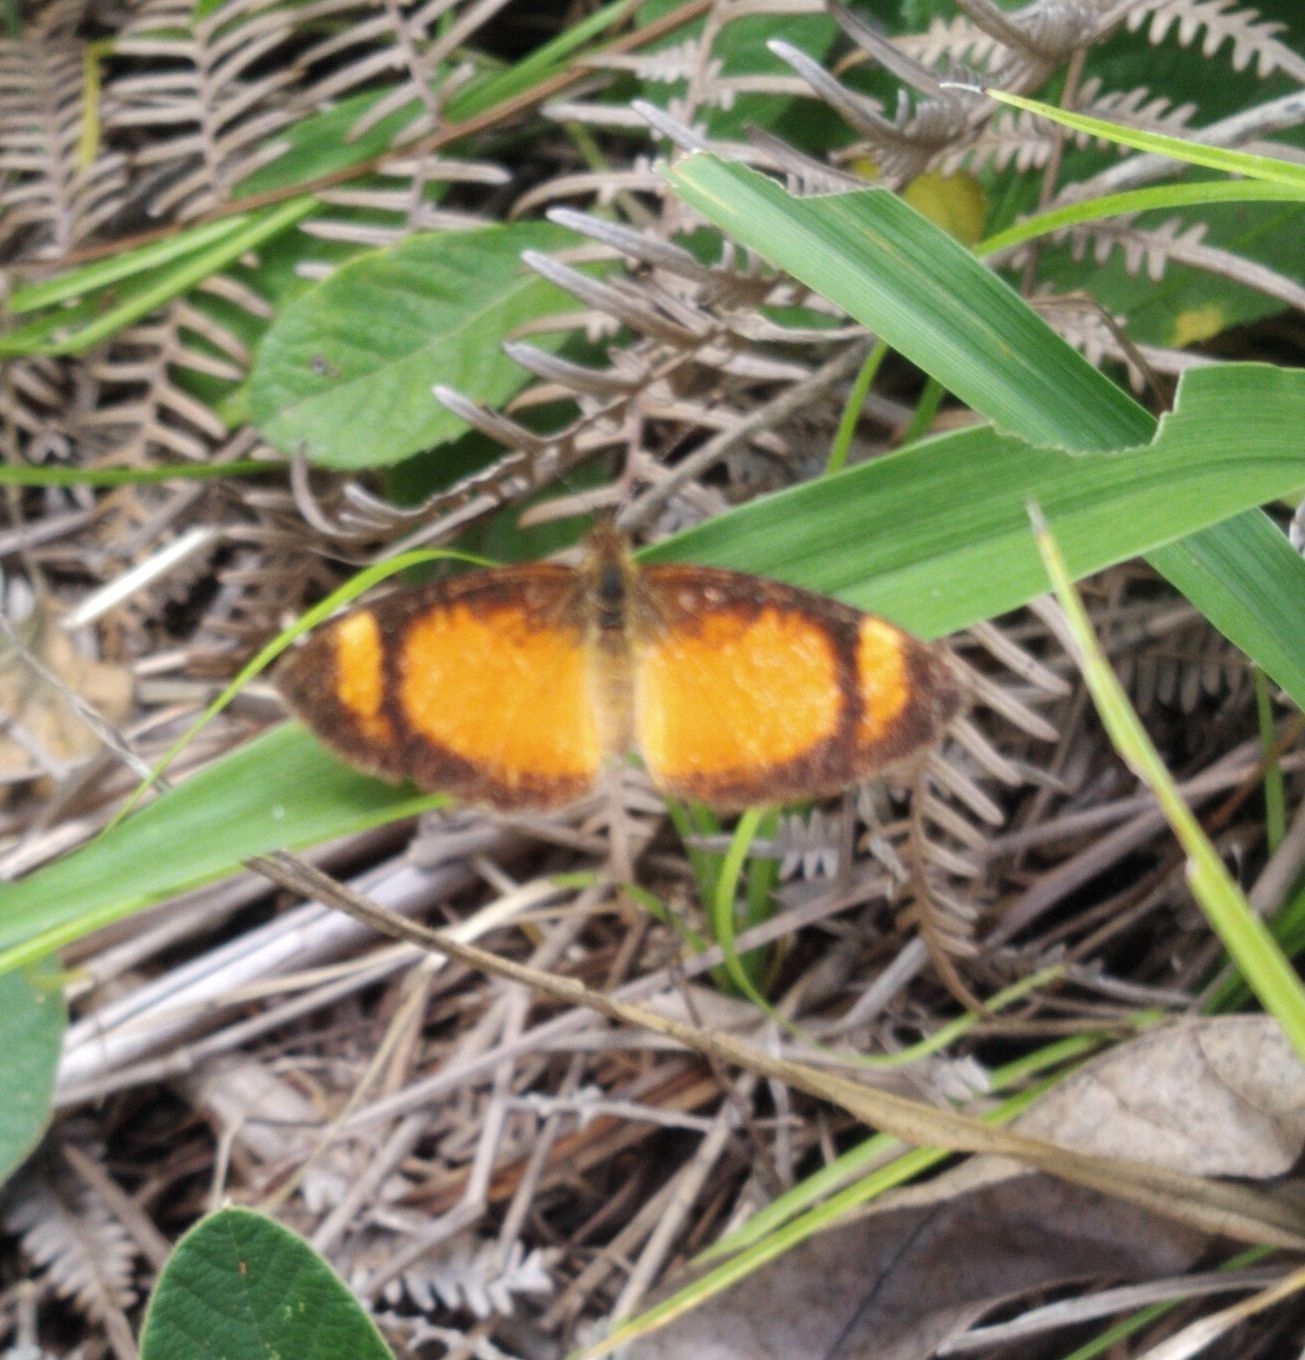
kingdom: Animalia
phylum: Arthropoda
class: Insecta
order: Lepidoptera
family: Nymphalidae
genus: Tegosa
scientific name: Tegosa anieta
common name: Black-bordered crescent
